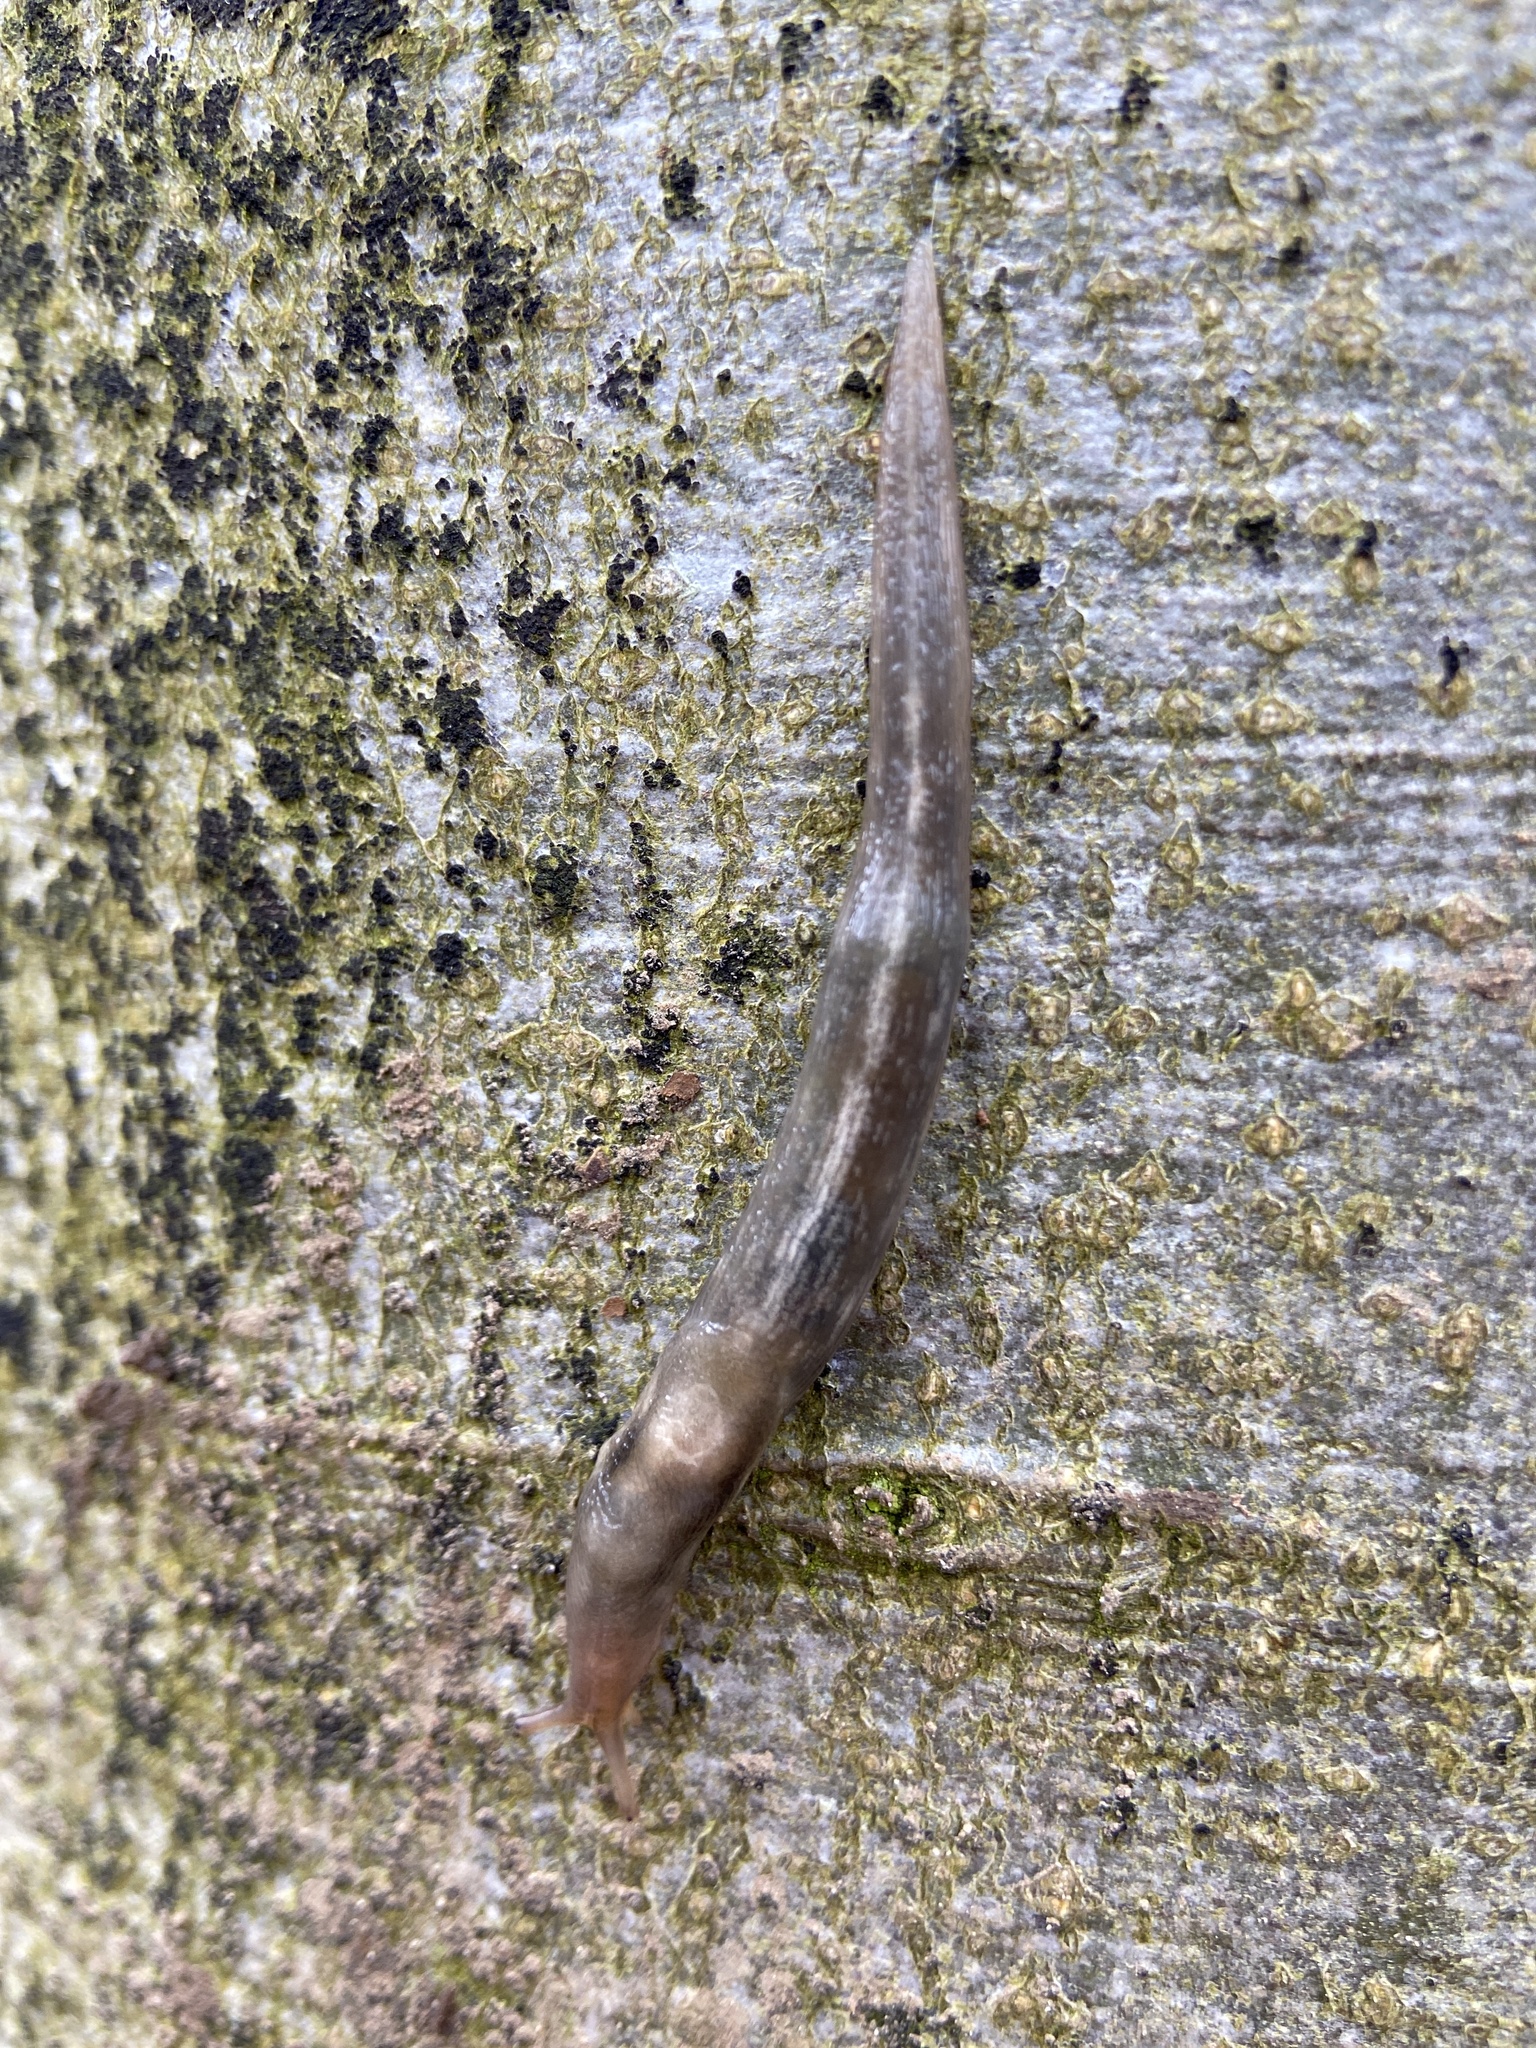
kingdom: Animalia
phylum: Mollusca
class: Gastropoda
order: Stylommatophora
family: Limacidae
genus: Lehmannia
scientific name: Lehmannia marginata
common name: Tree slug
